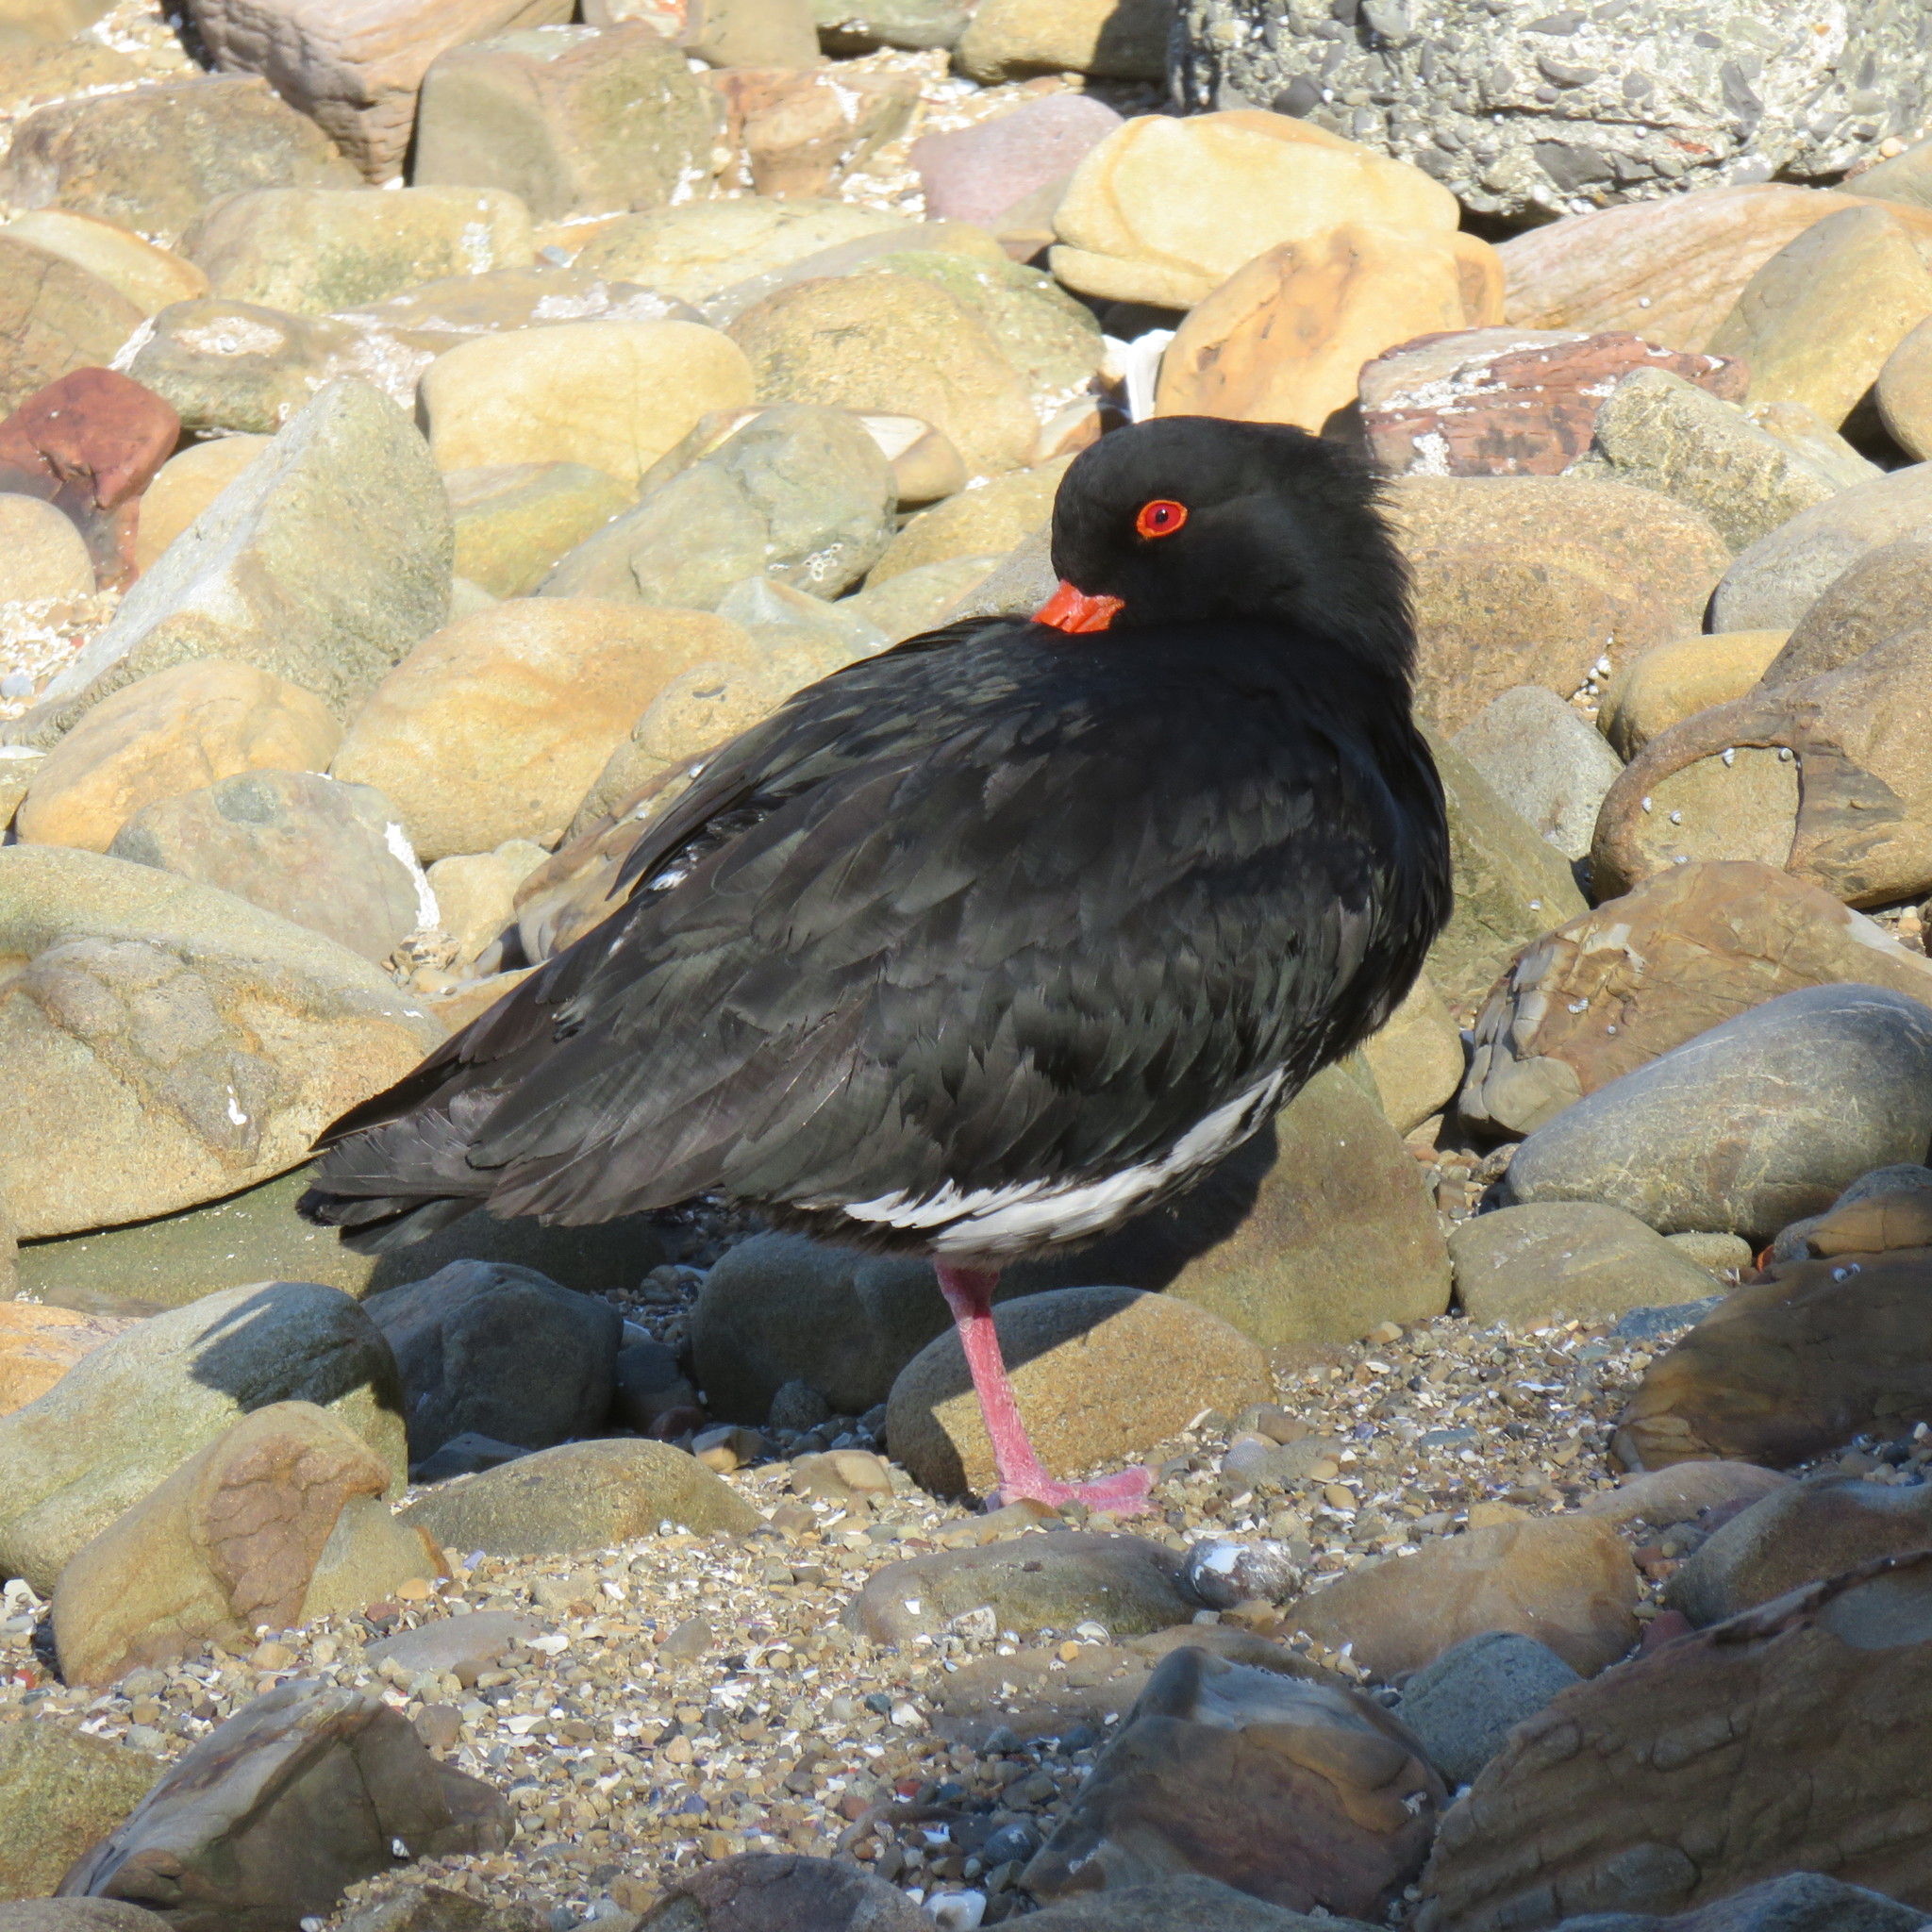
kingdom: Animalia
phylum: Chordata
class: Aves
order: Charadriiformes
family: Haematopodidae
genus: Haematopus
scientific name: Haematopus unicolor
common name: Variable oystercatcher
